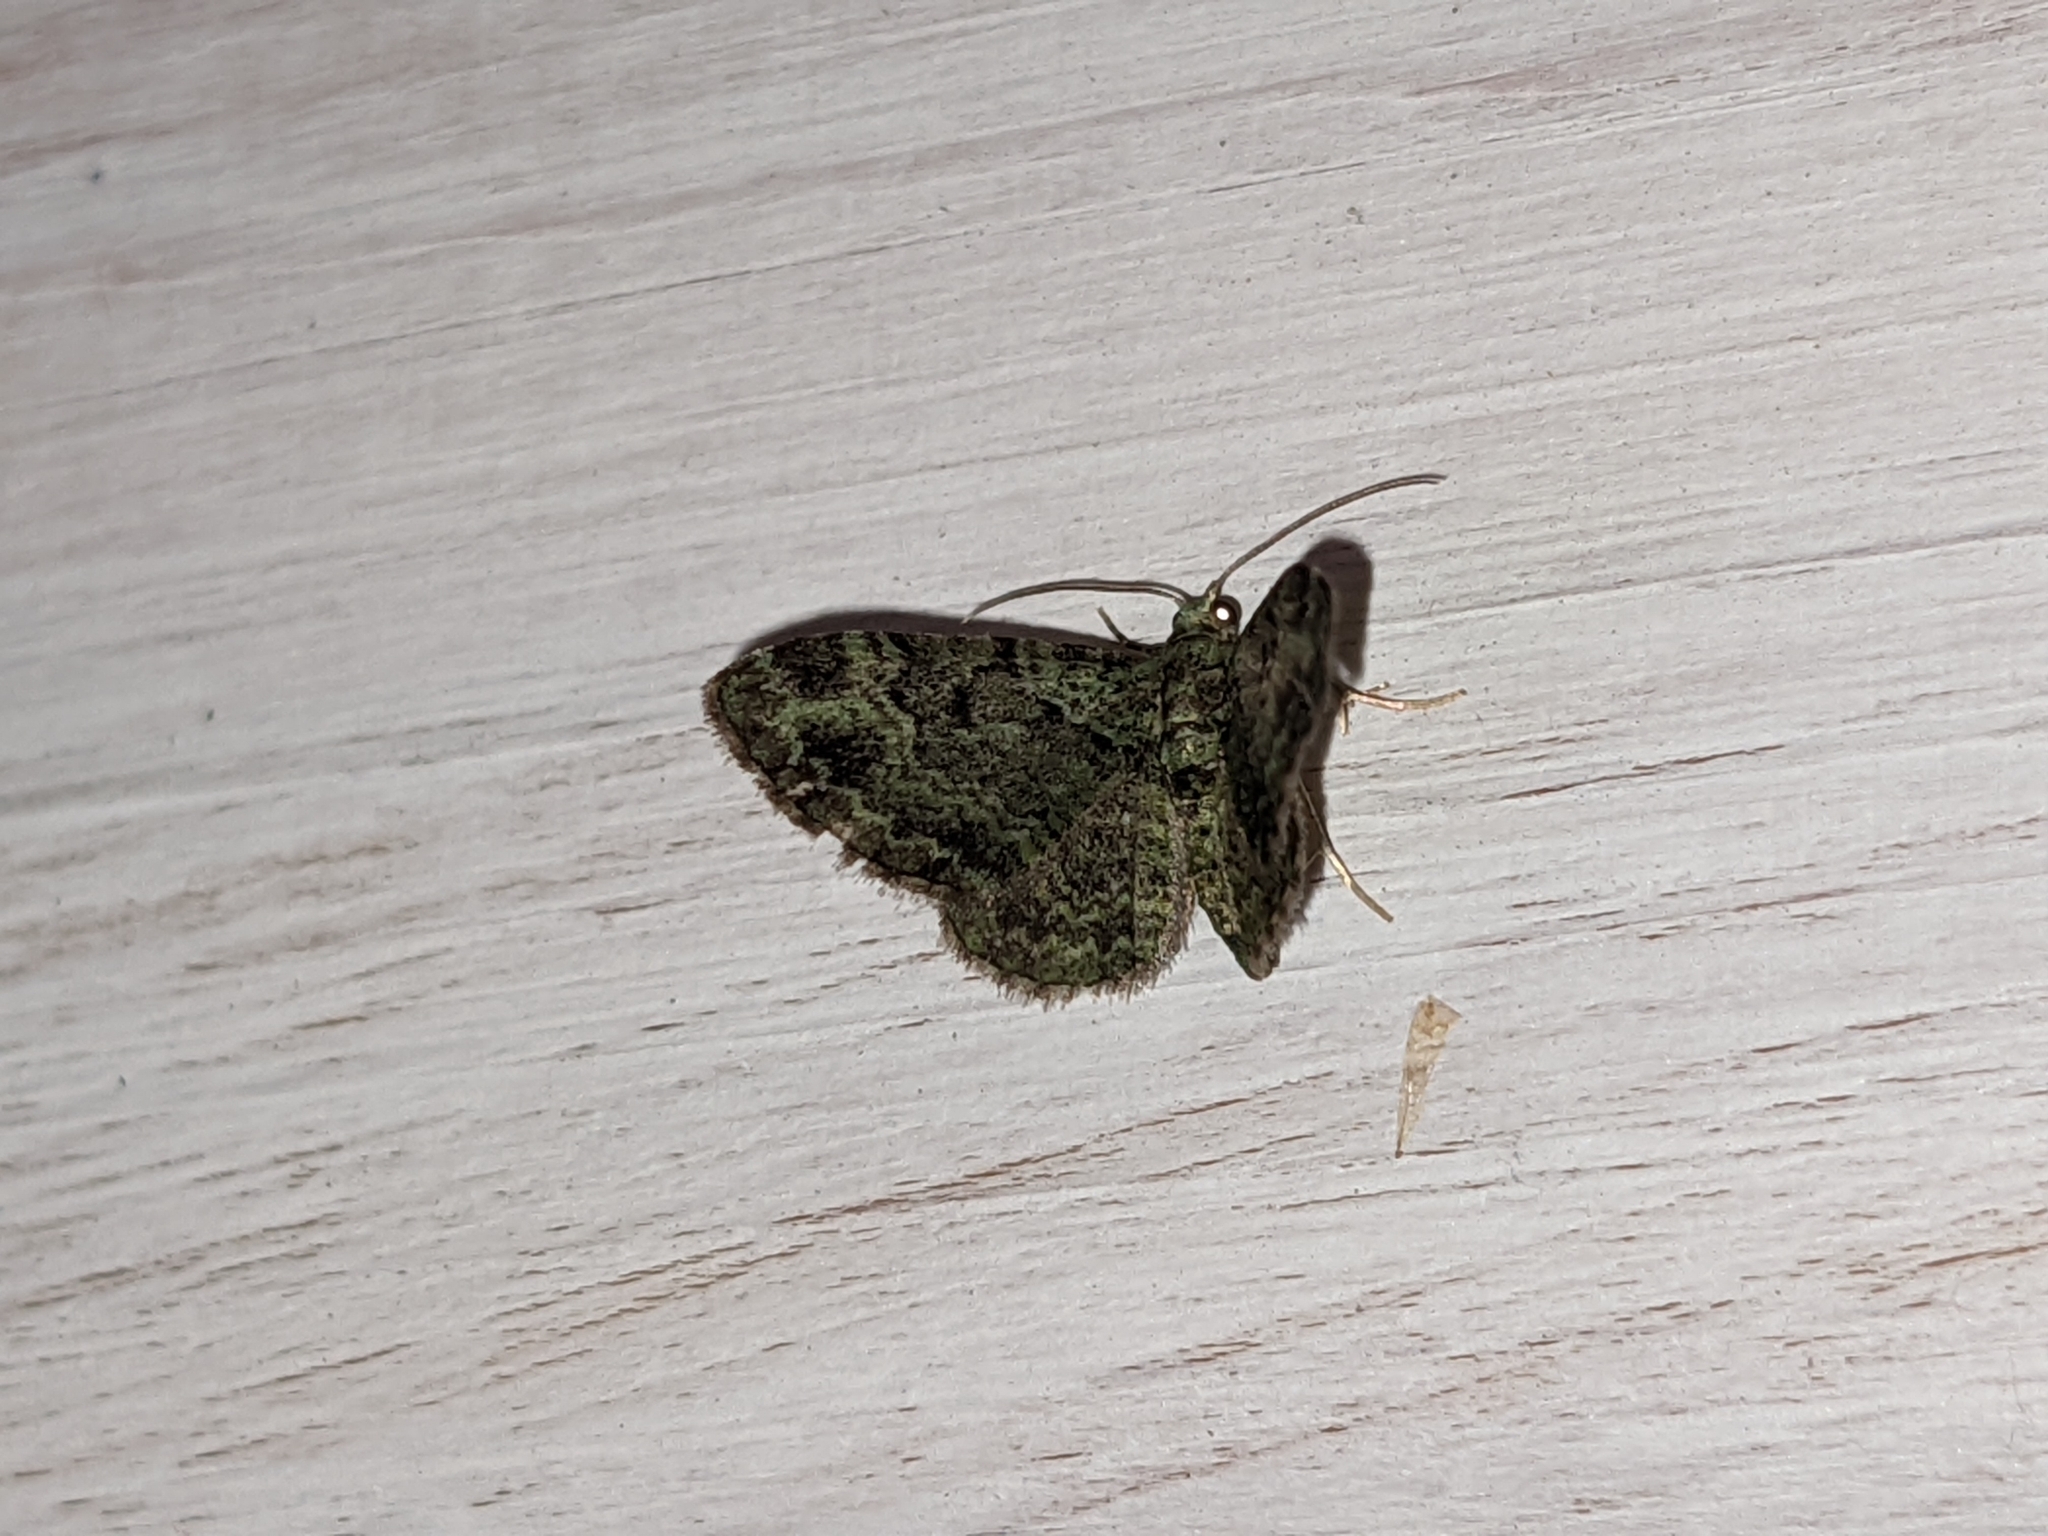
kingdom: Animalia
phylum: Arthropoda
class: Insecta
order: Lepidoptera
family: Geometridae
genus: Pasiphila
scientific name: Pasiphila rectangulata
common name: Green pug
